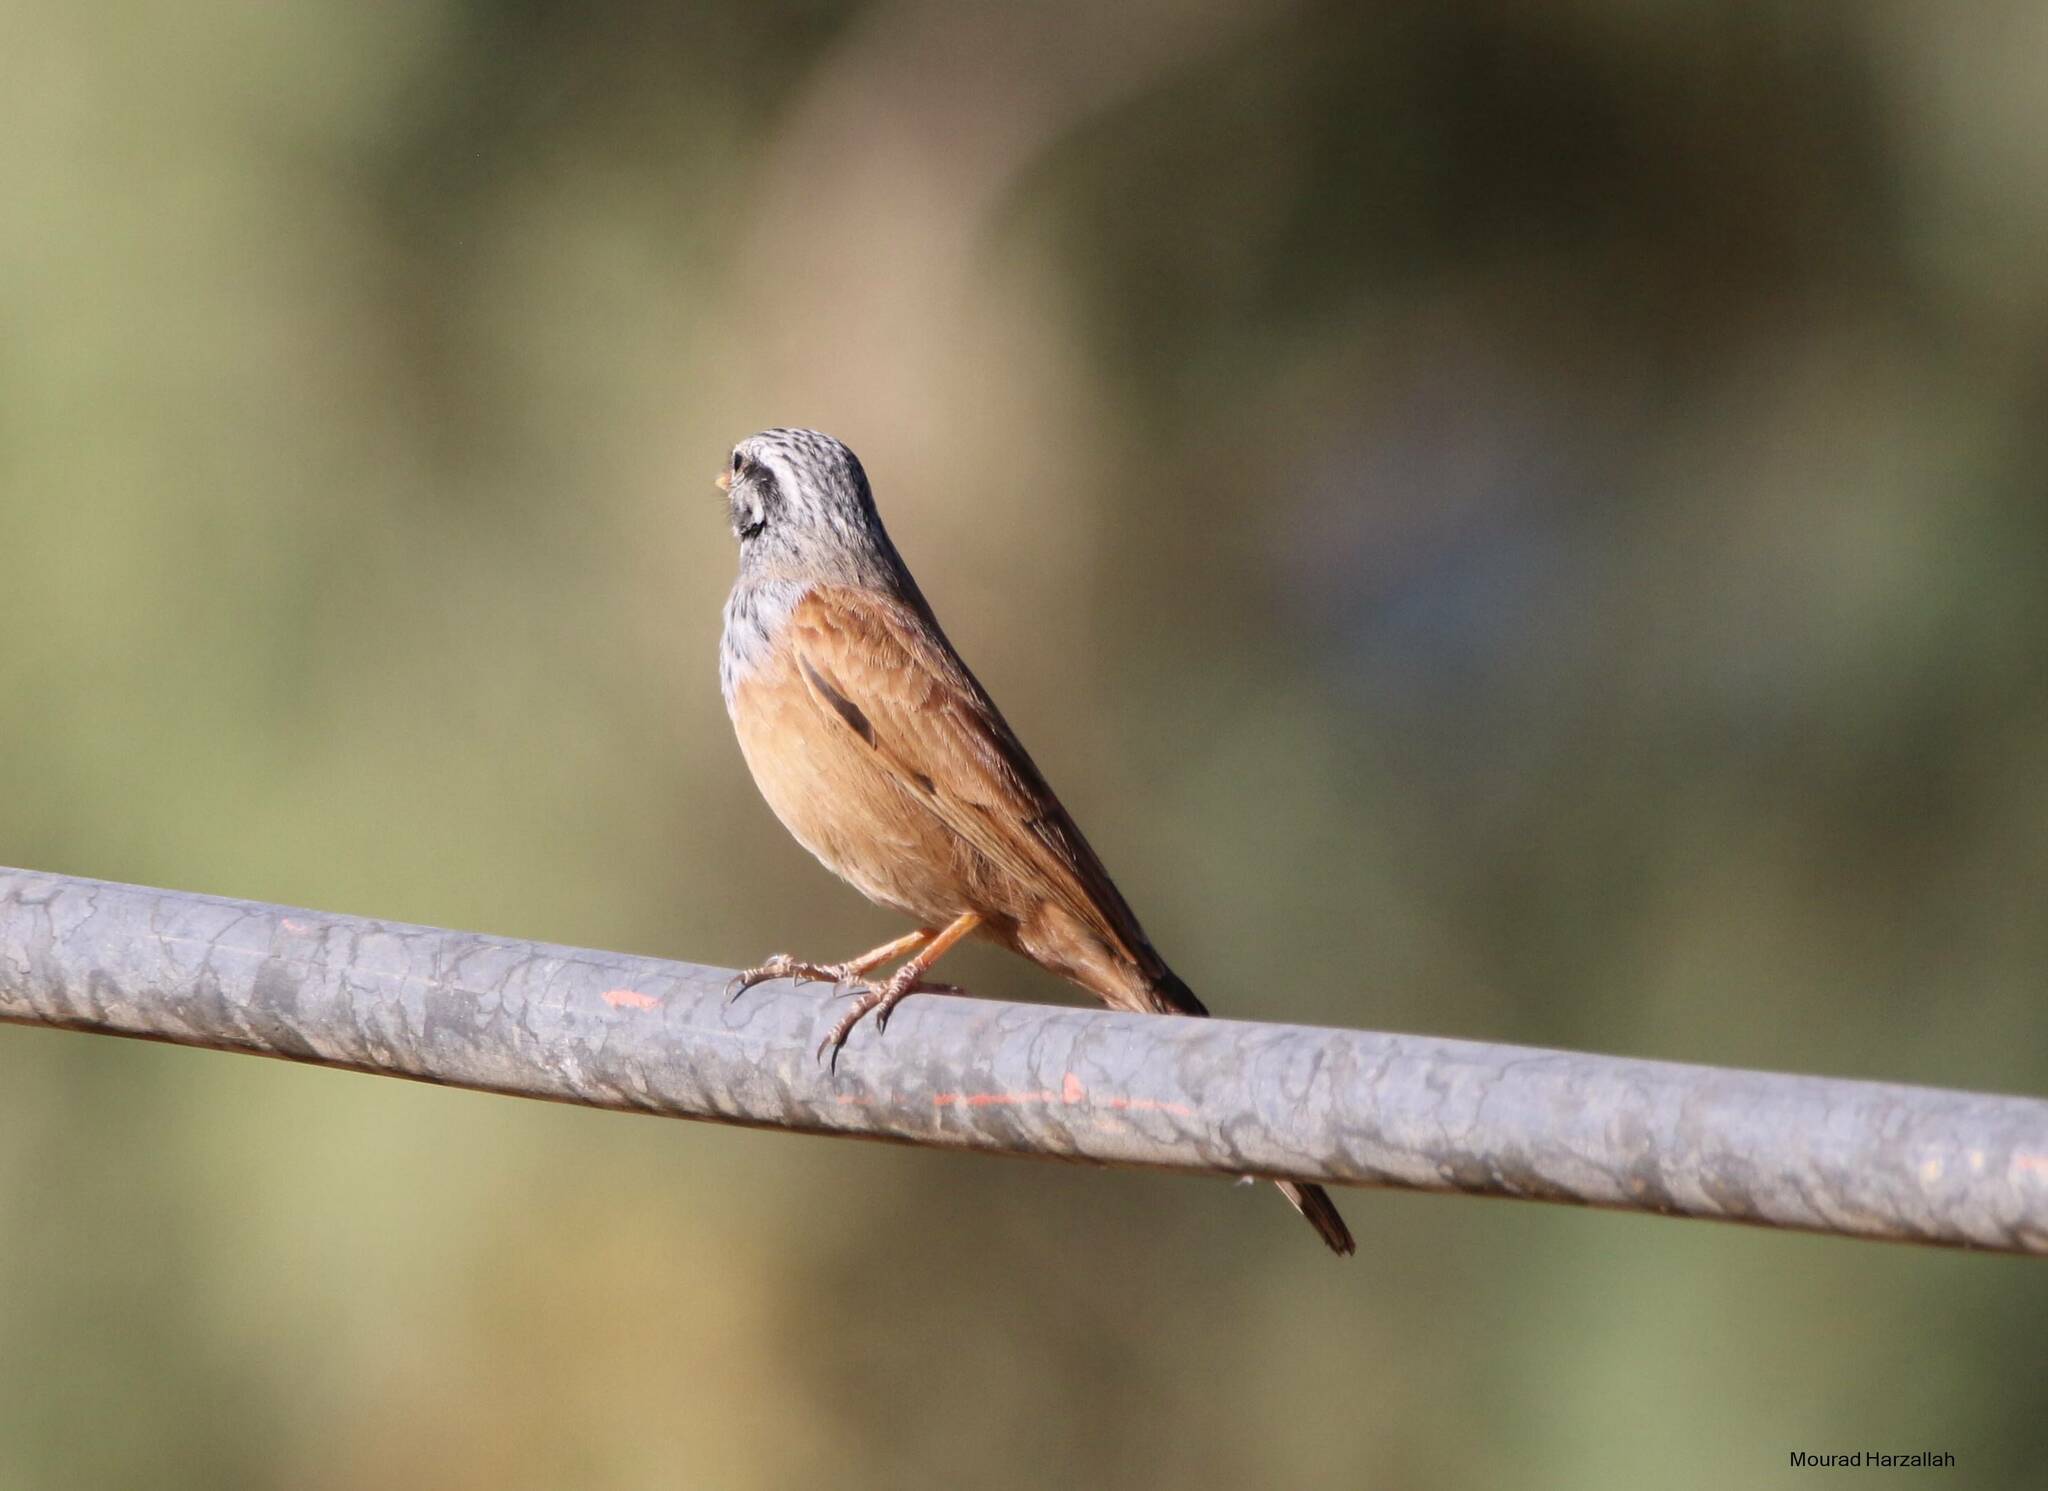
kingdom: Animalia
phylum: Chordata
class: Aves
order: Passeriformes
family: Emberizidae
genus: Emberiza
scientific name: Emberiza sahari
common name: House bunting
